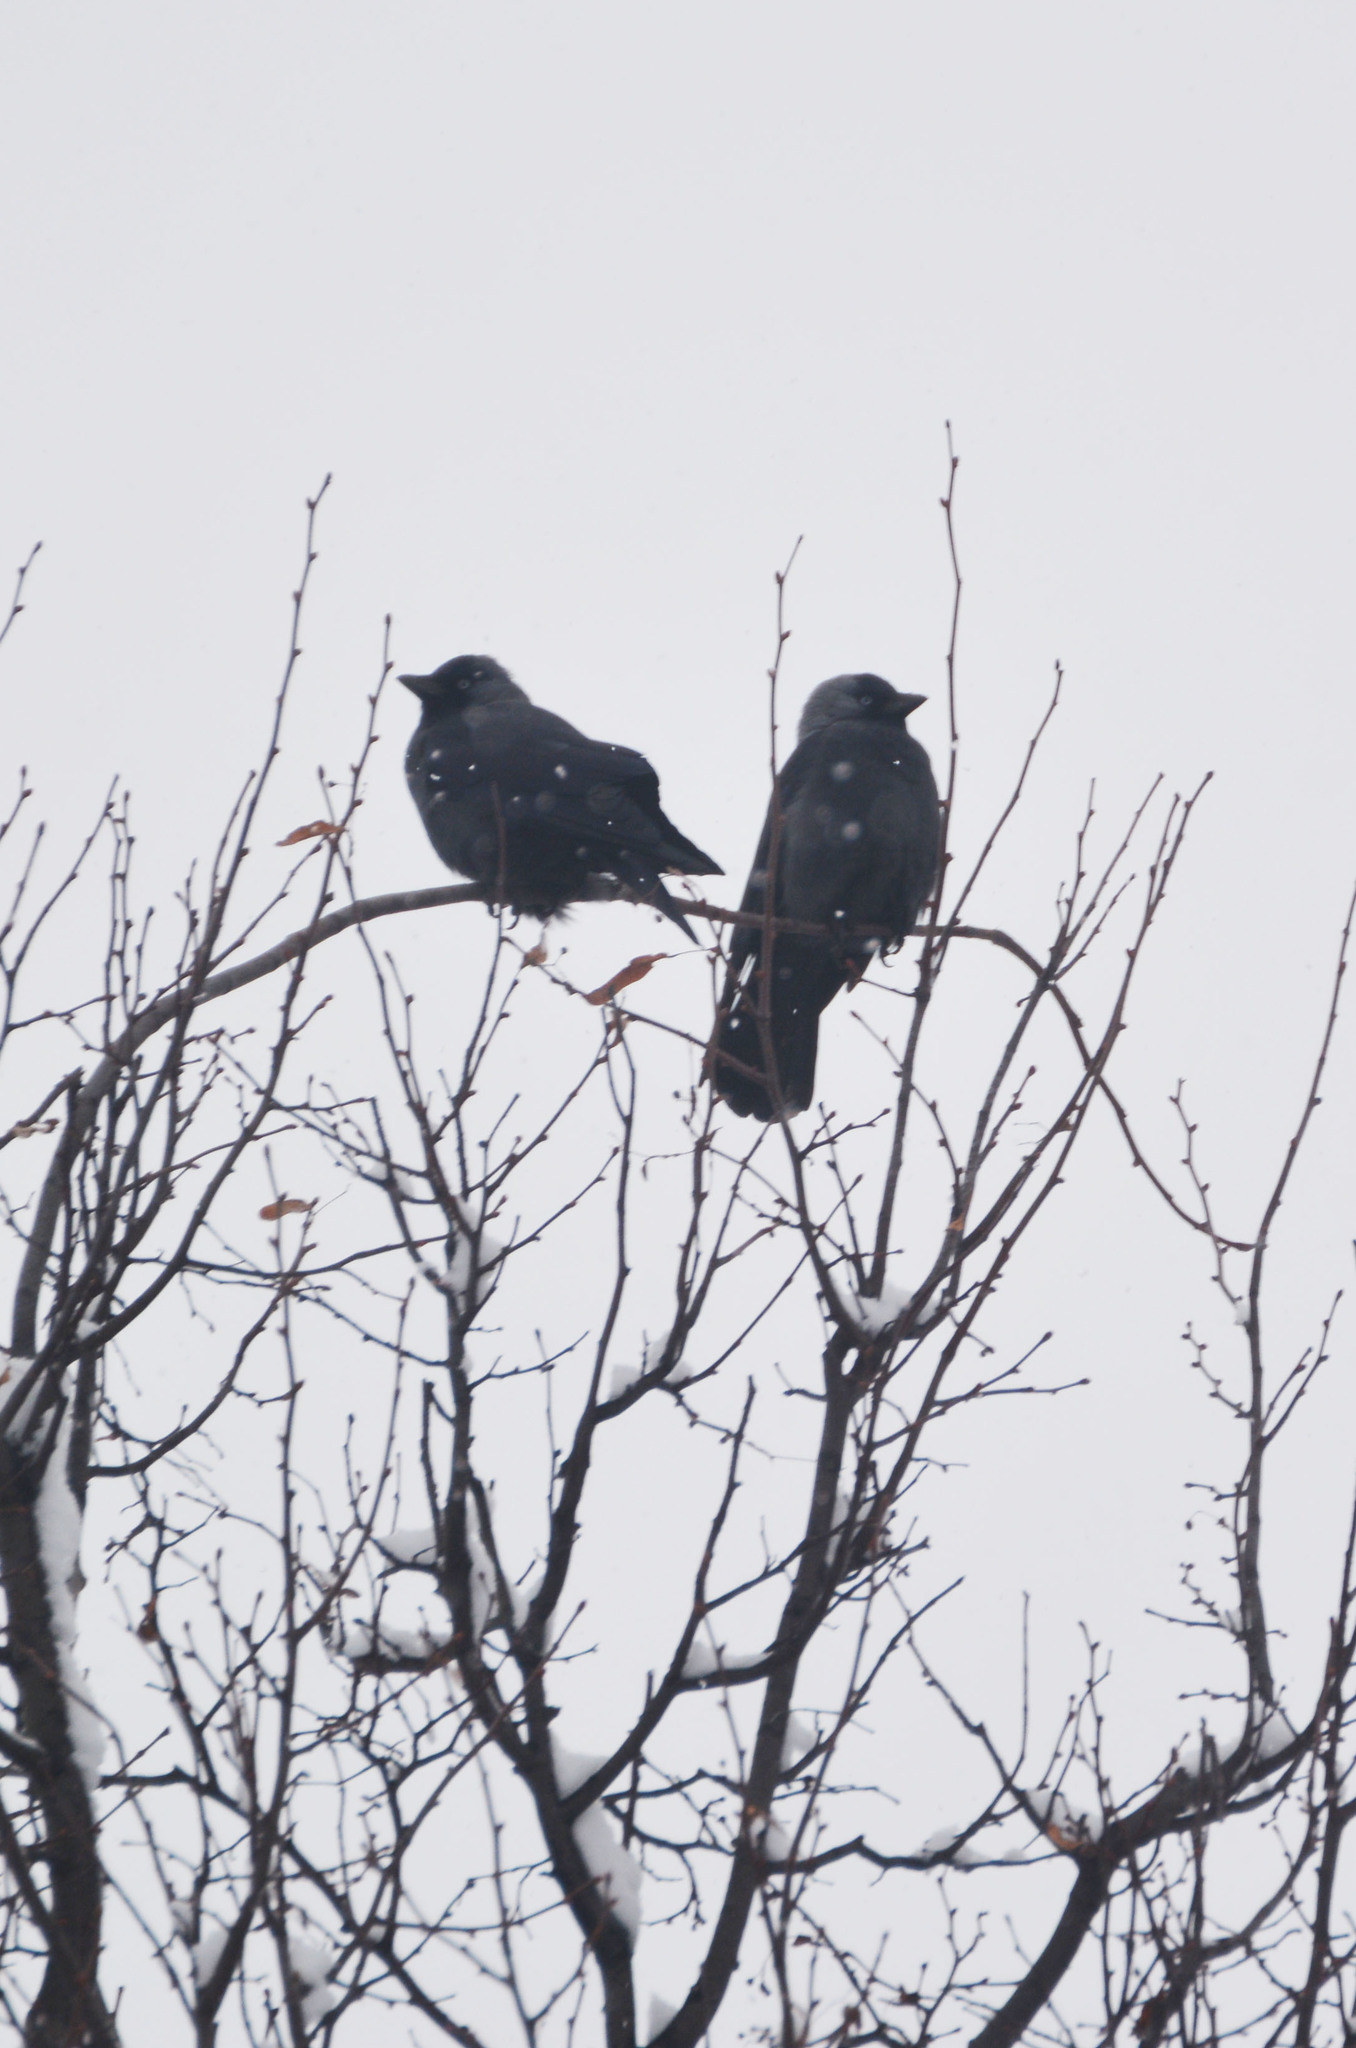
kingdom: Animalia
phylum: Chordata
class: Aves
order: Passeriformes
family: Corvidae
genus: Coloeus
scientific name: Coloeus monedula
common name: Western jackdaw
